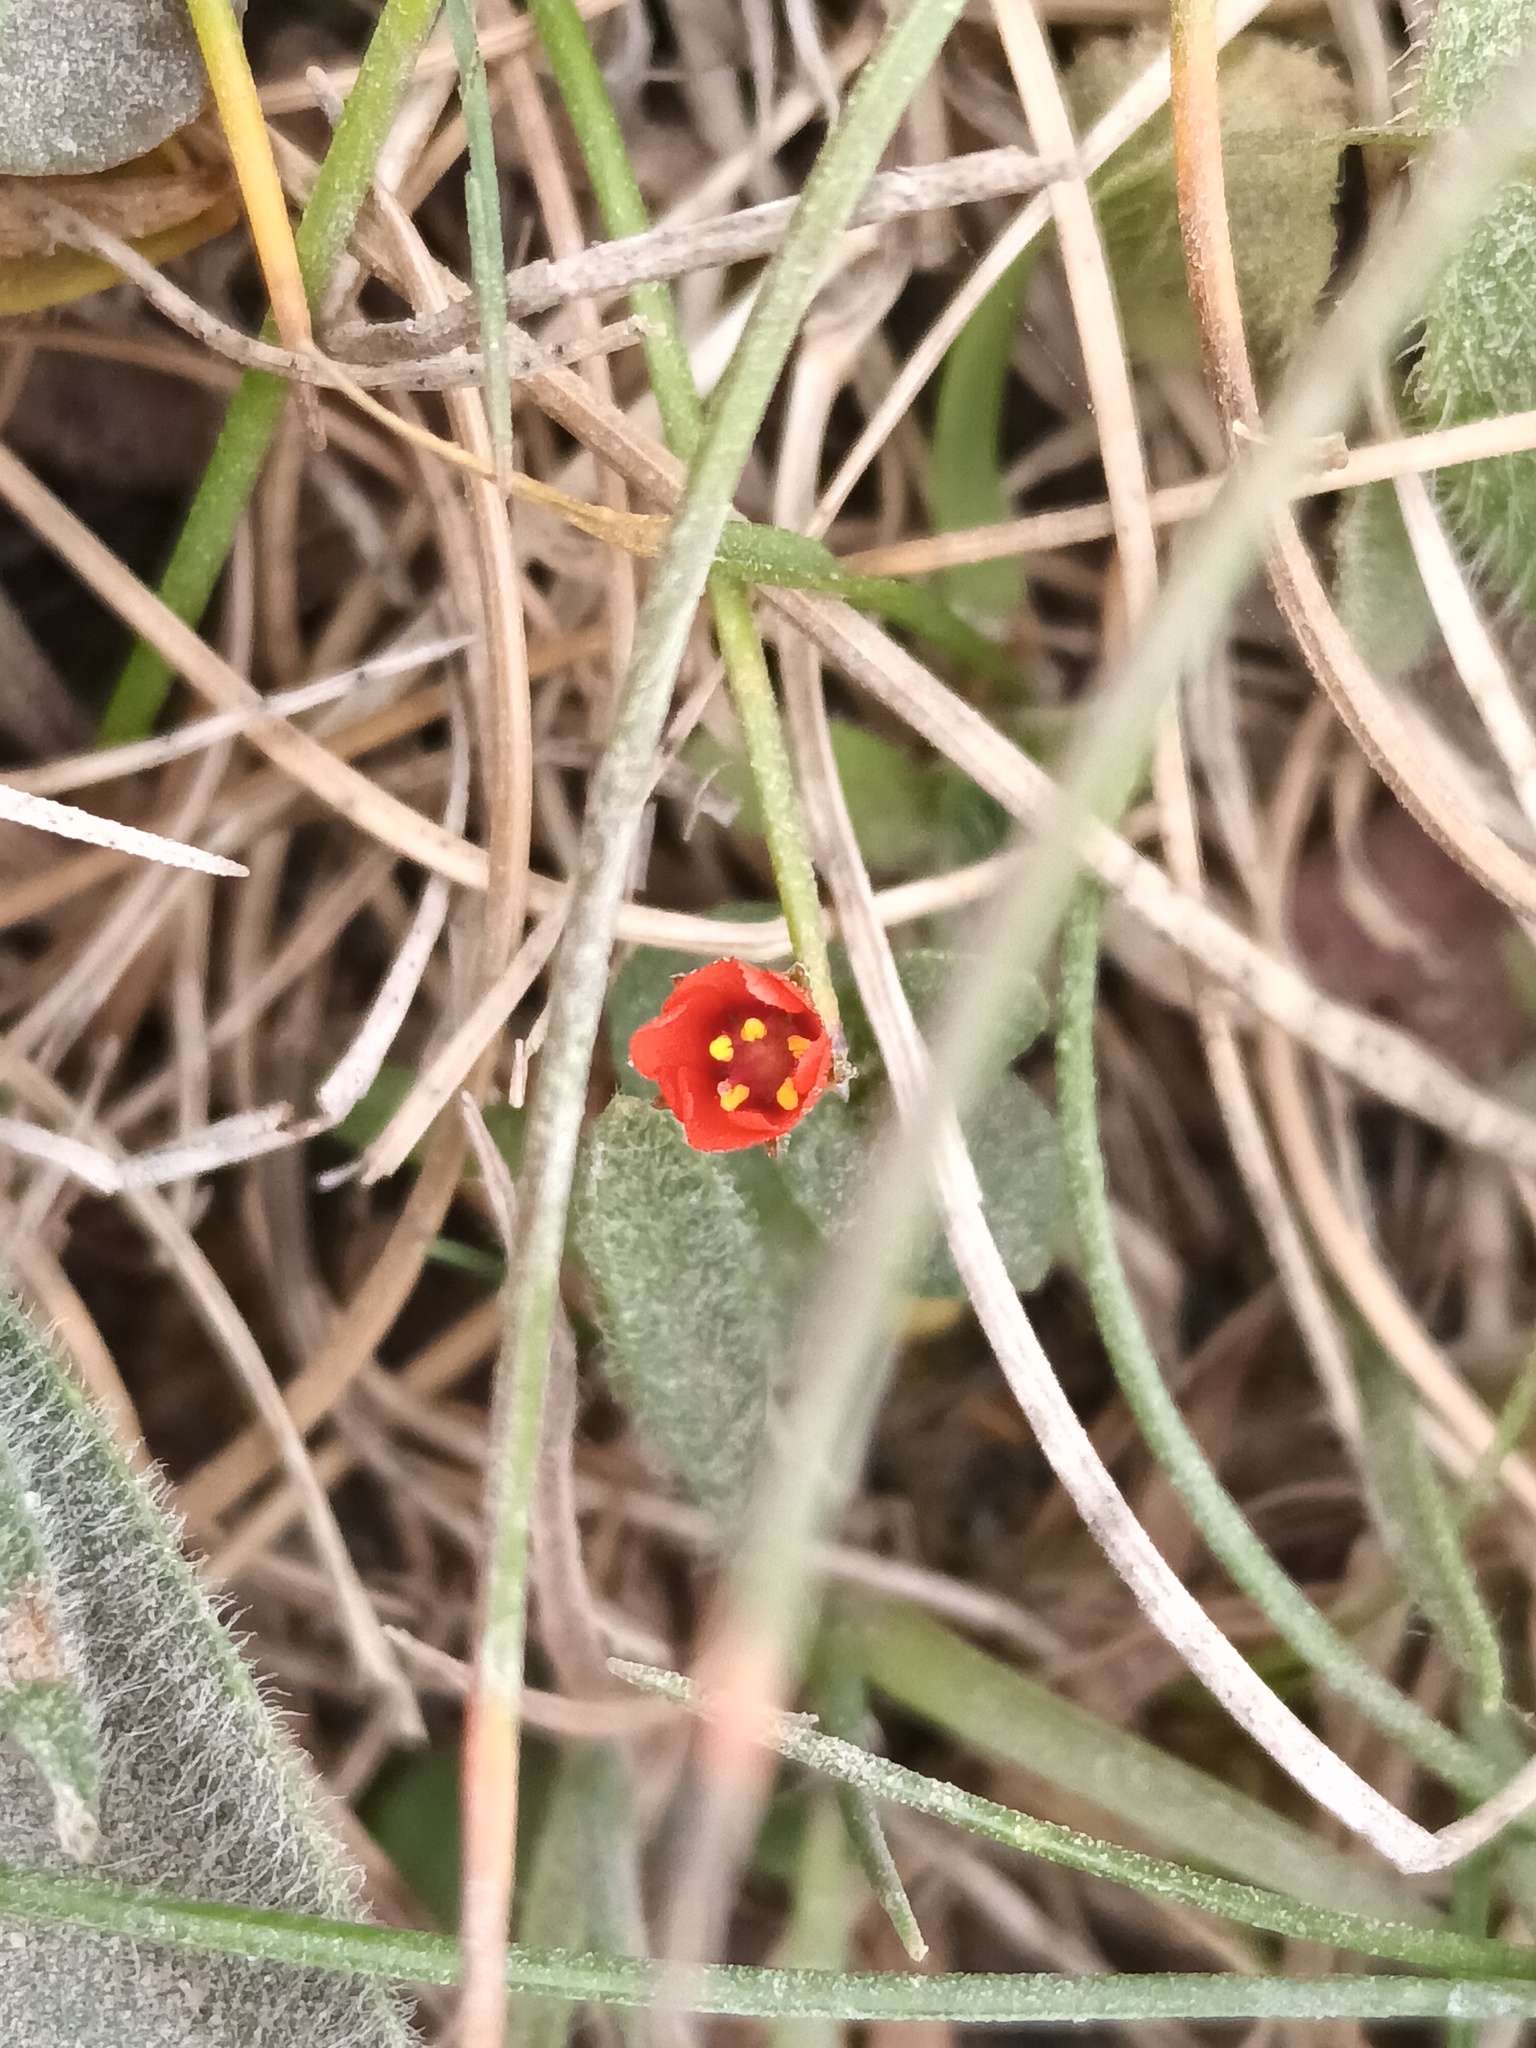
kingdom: Plantae
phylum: Tracheophyta
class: Magnoliopsida
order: Ericales
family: Primulaceae
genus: Lysimachia
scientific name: Lysimachia arvensis
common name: Scarlet pimpernel
